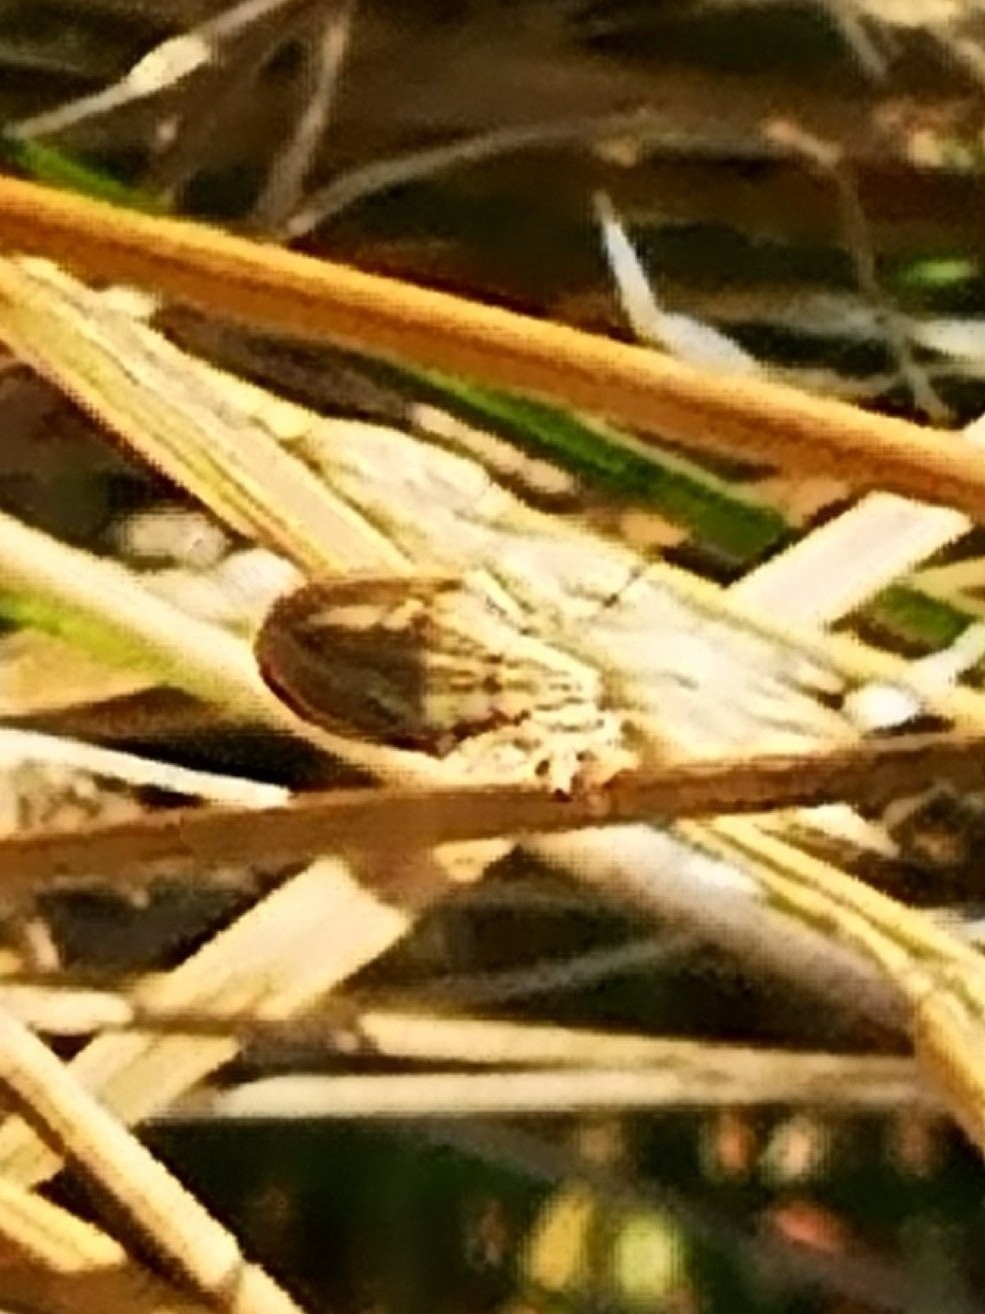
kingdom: Animalia
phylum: Arthropoda
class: Insecta
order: Hemiptera
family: Pentatomidae
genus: Aelia
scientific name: Aelia acuminata
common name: Bishop's mitre
